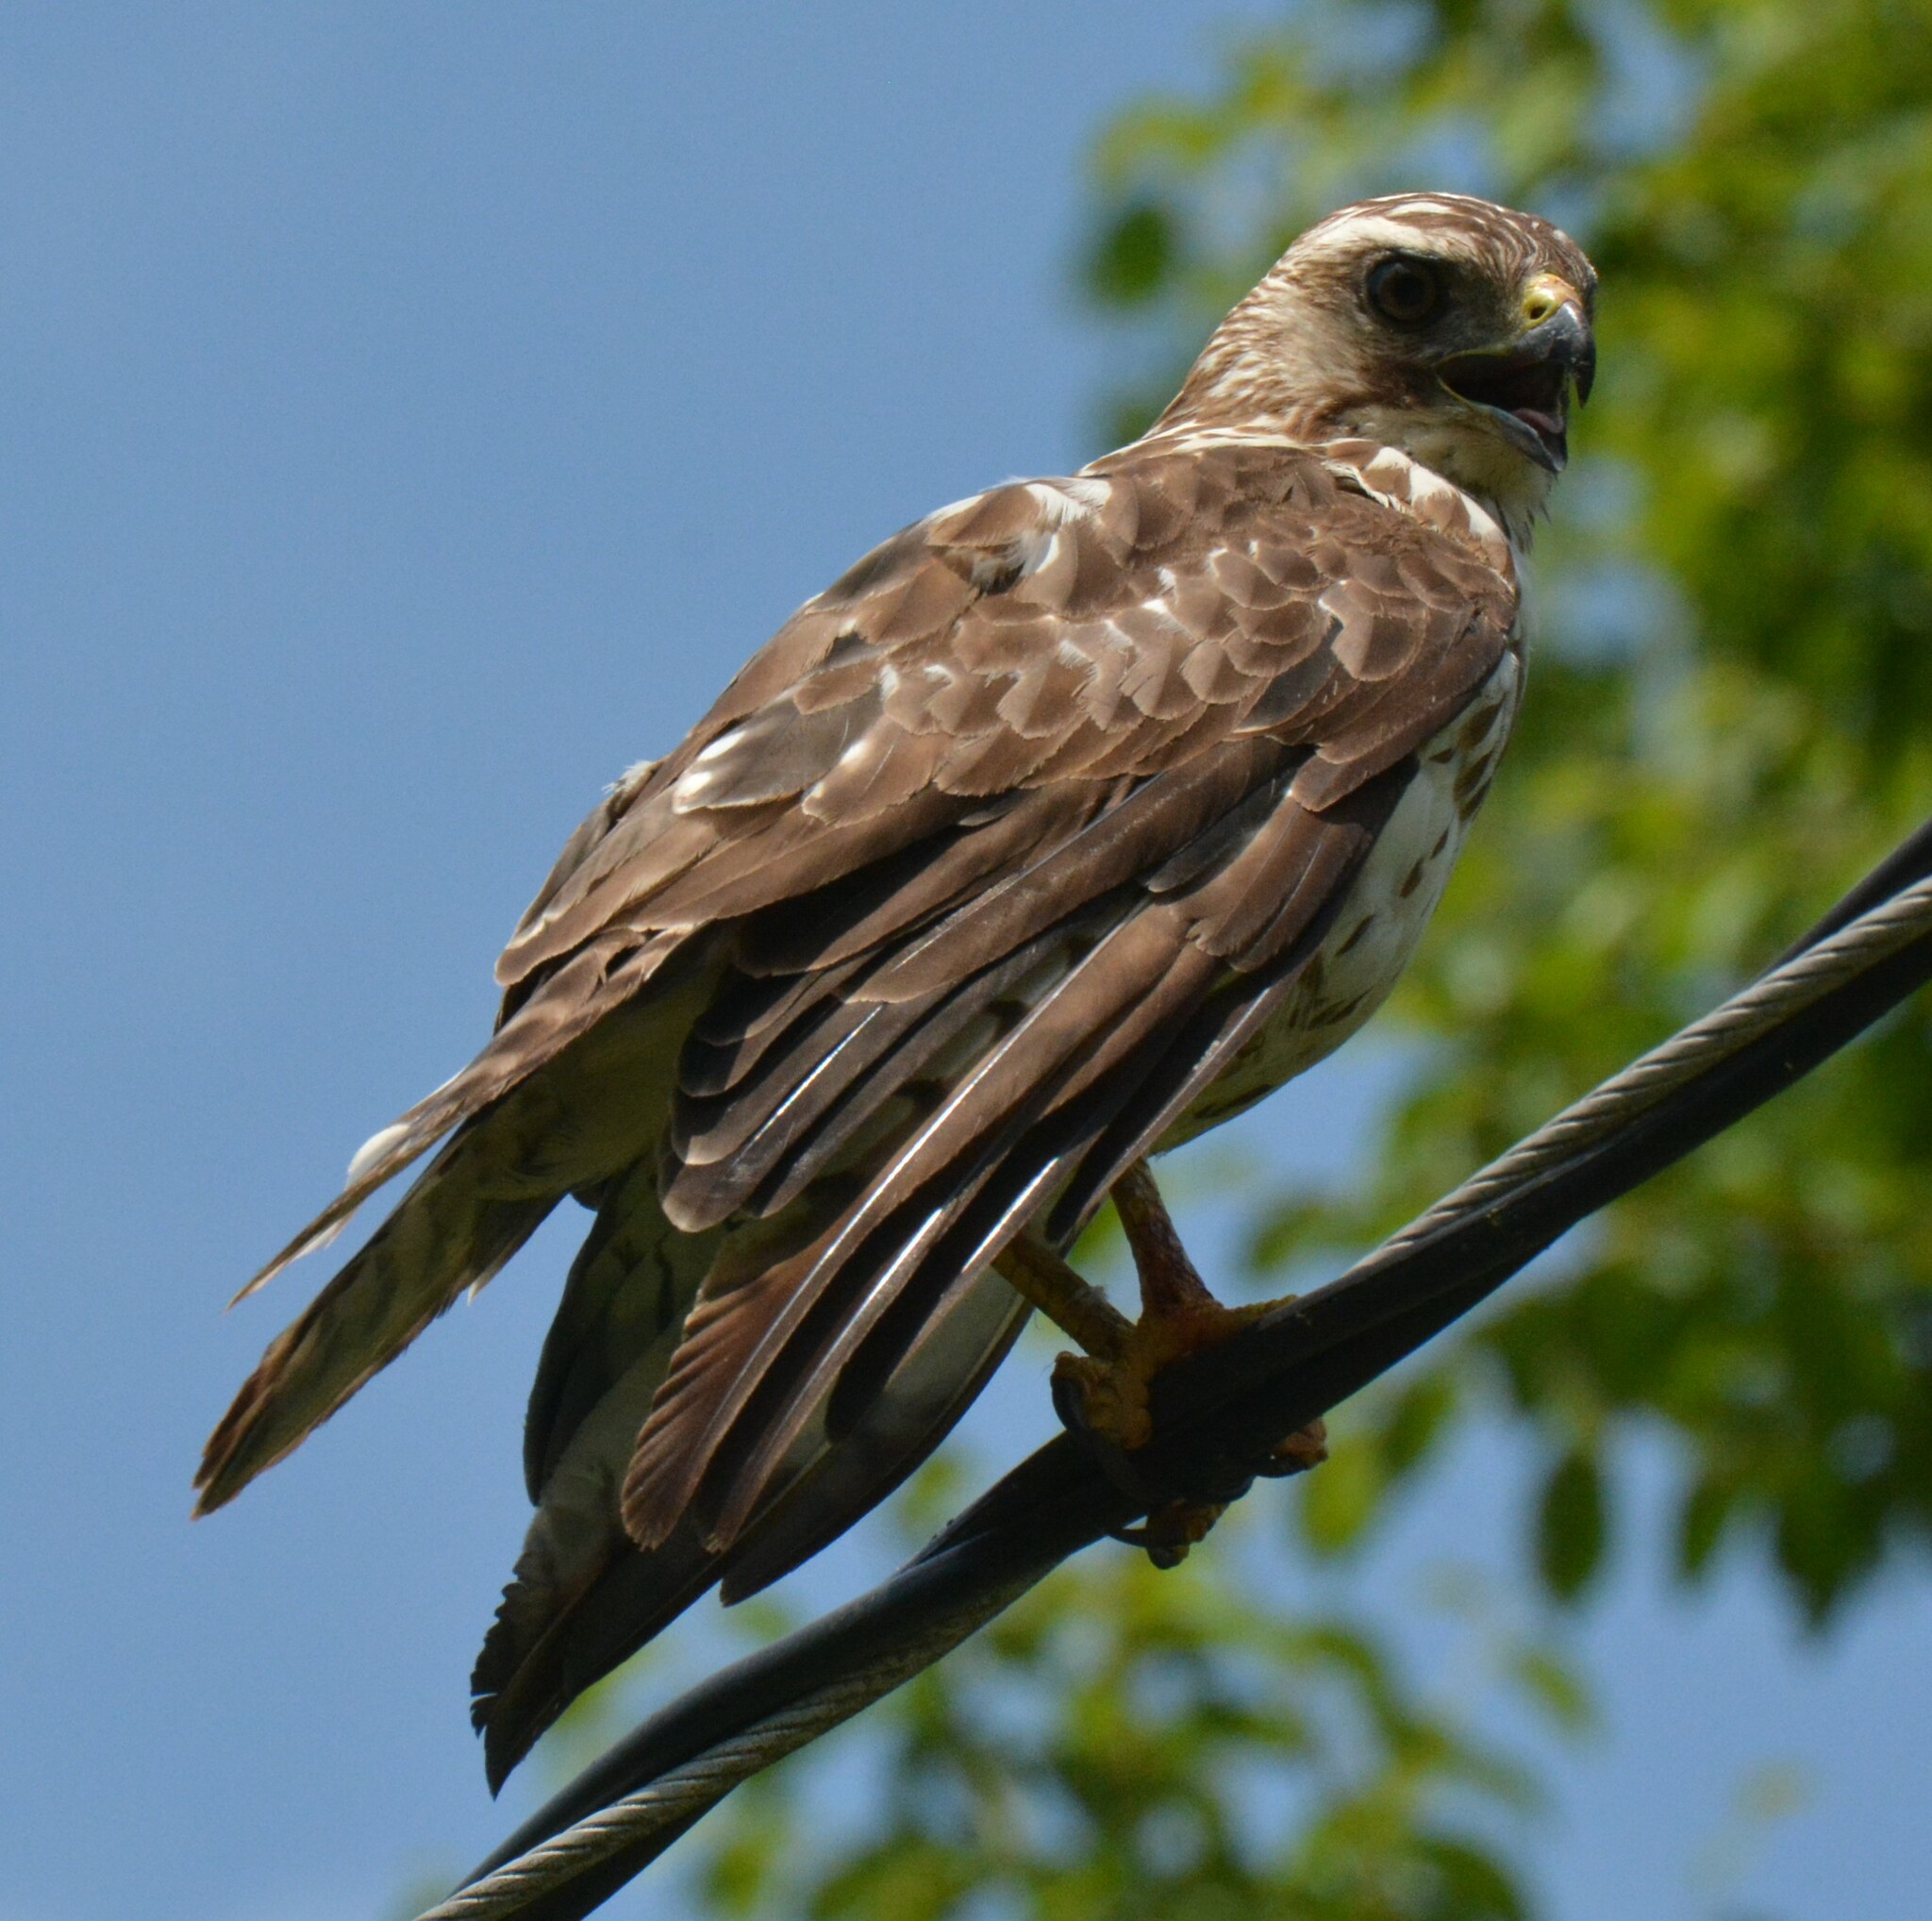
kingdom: Animalia
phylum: Chordata
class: Aves
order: Accipitriformes
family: Accipitridae
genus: Buteo
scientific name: Buteo platypterus
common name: Broad-winged hawk
